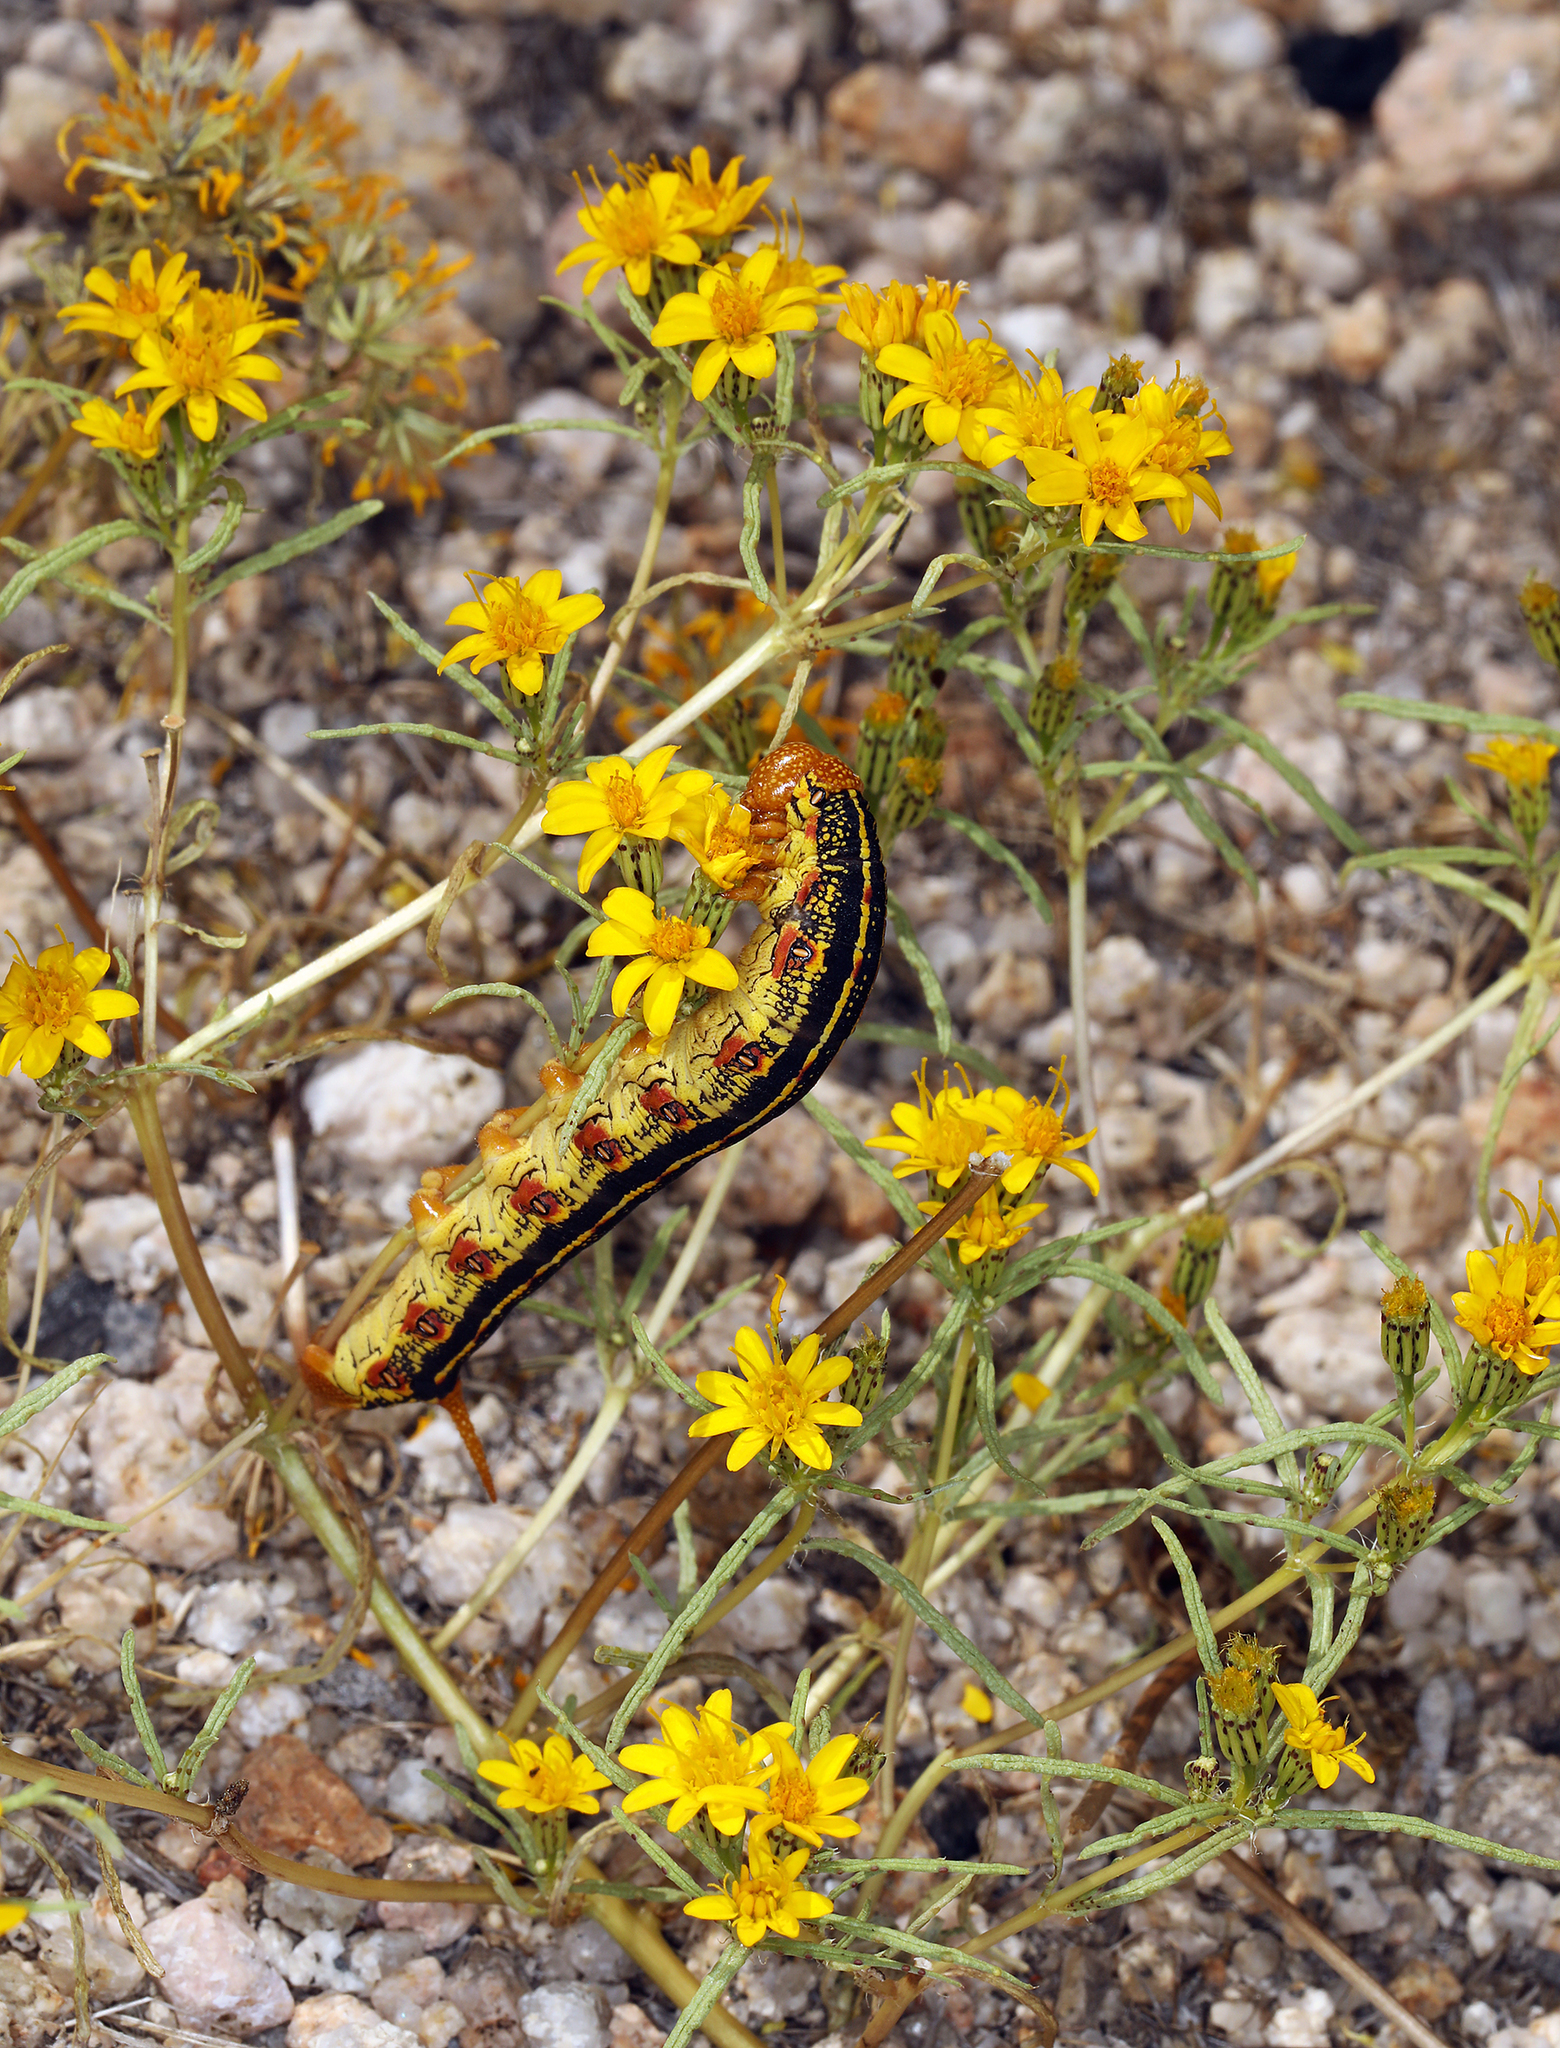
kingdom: Plantae
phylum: Tracheophyta
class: Magnoliopsida
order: Asterales
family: Asteraceae
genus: Pectis
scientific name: Pectis papposa
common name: Many-bristle chinchweed
